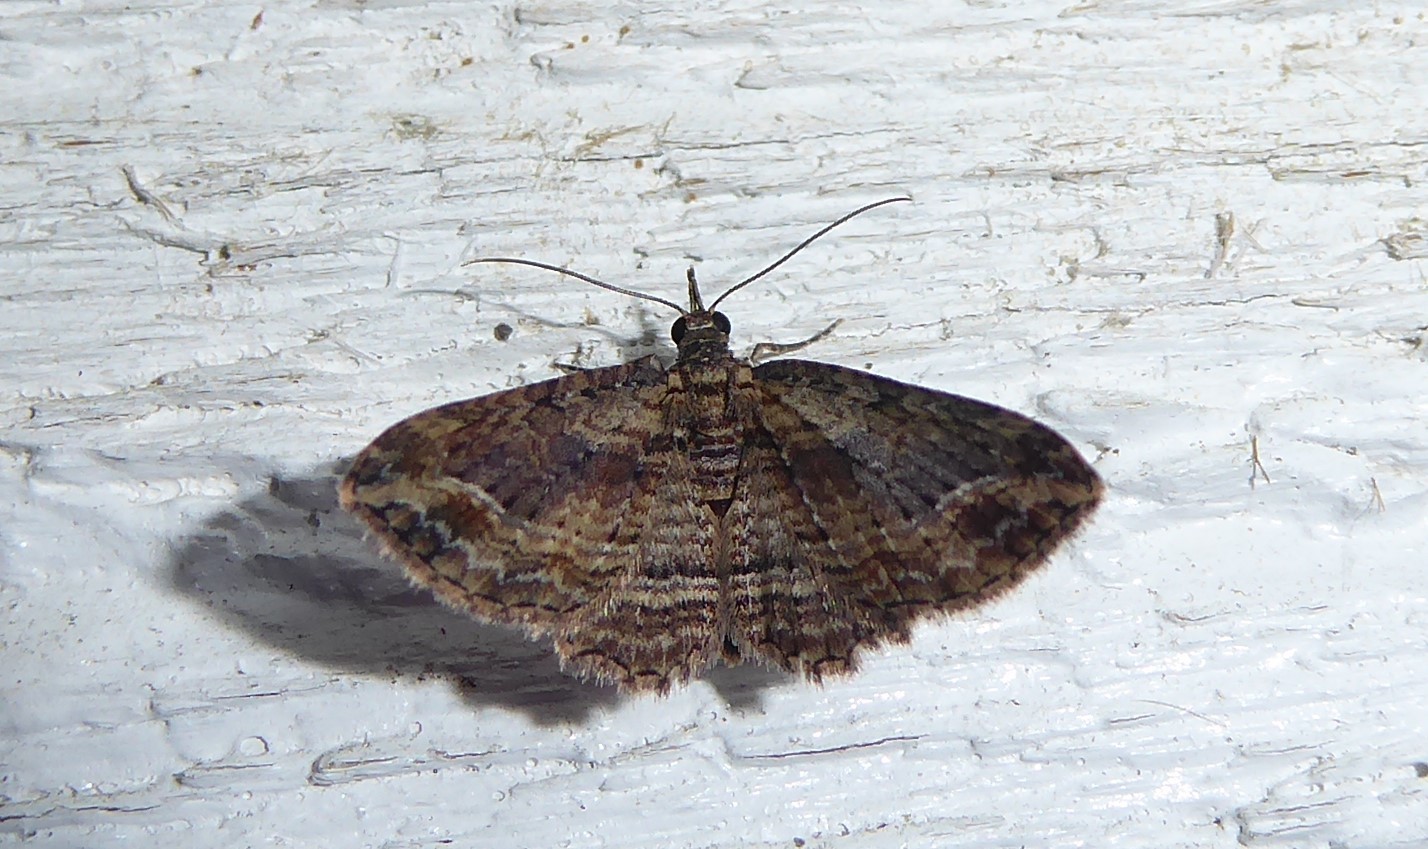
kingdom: Animalia
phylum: Arthropoda
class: Insecta
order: Lepidoptera
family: Geometridae
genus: Chloroclystis
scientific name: Chloroclystis filata
